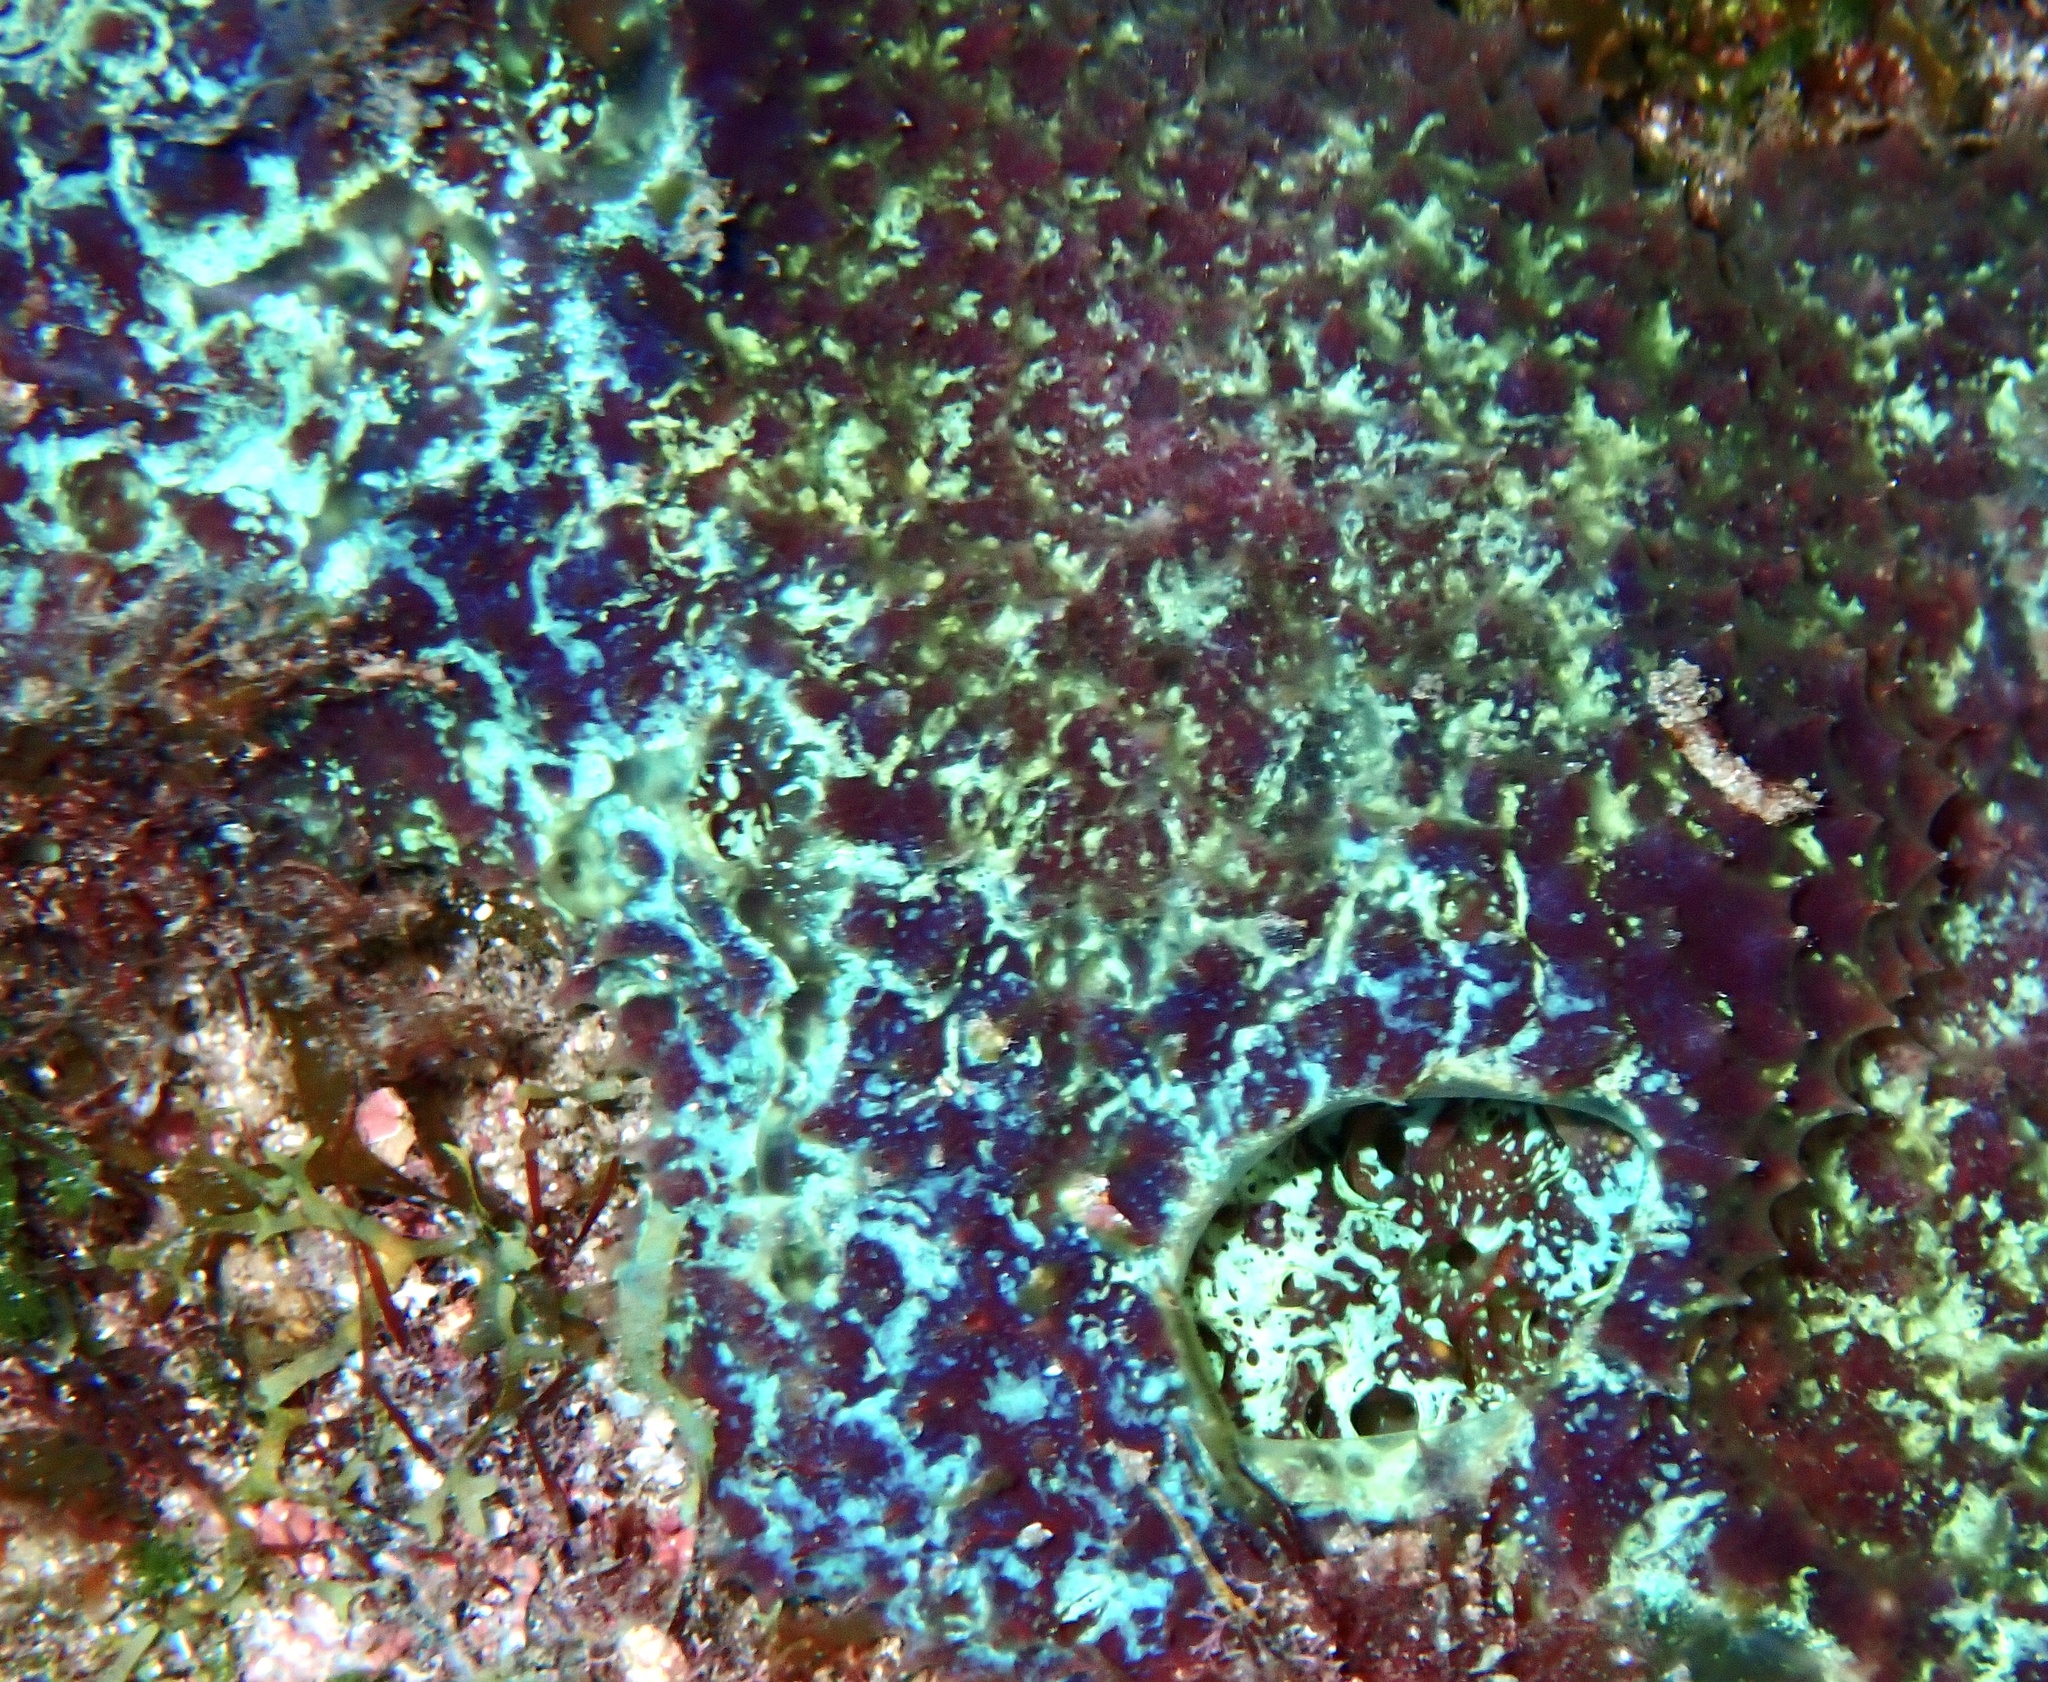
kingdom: Animalia
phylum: Porifera
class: Demospongiae
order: Poecilosclerida
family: Mycalidae
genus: Mycale
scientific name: Mycale laxissima
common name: Strawberry vase sponge
